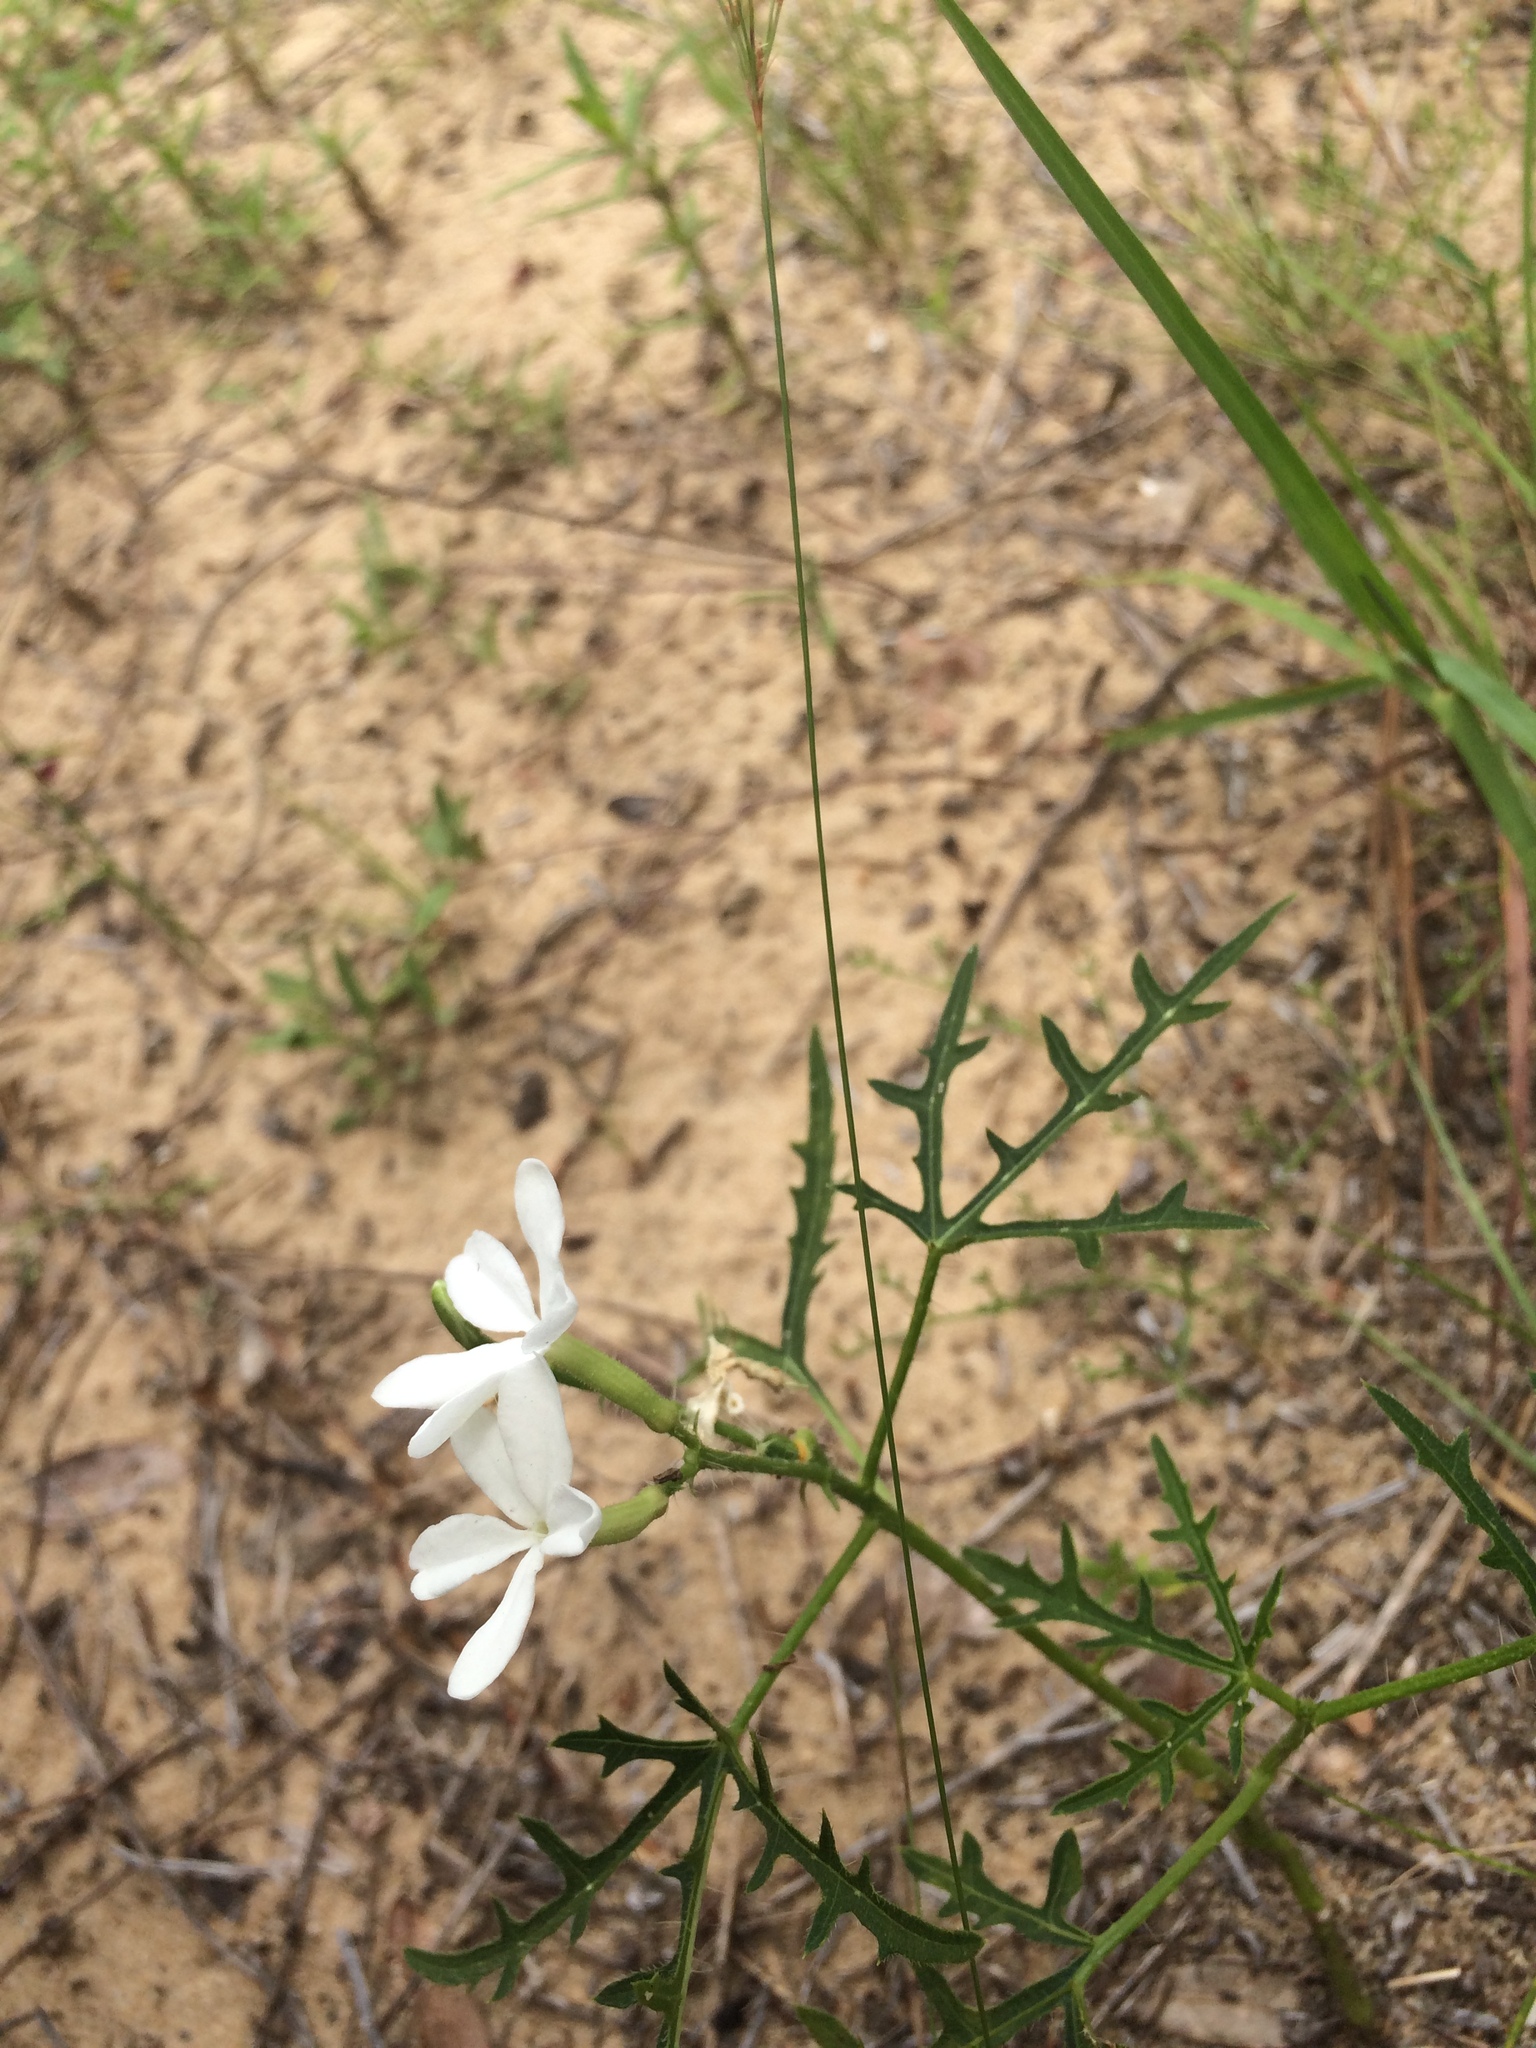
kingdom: Plantae
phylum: Tracheophyta
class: Magnoliopsida
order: Malpighiales
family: Euphorbiaceae
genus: Cnidoscolus
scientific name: Cnidoscolus stimulosus
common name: Bull-nettle
